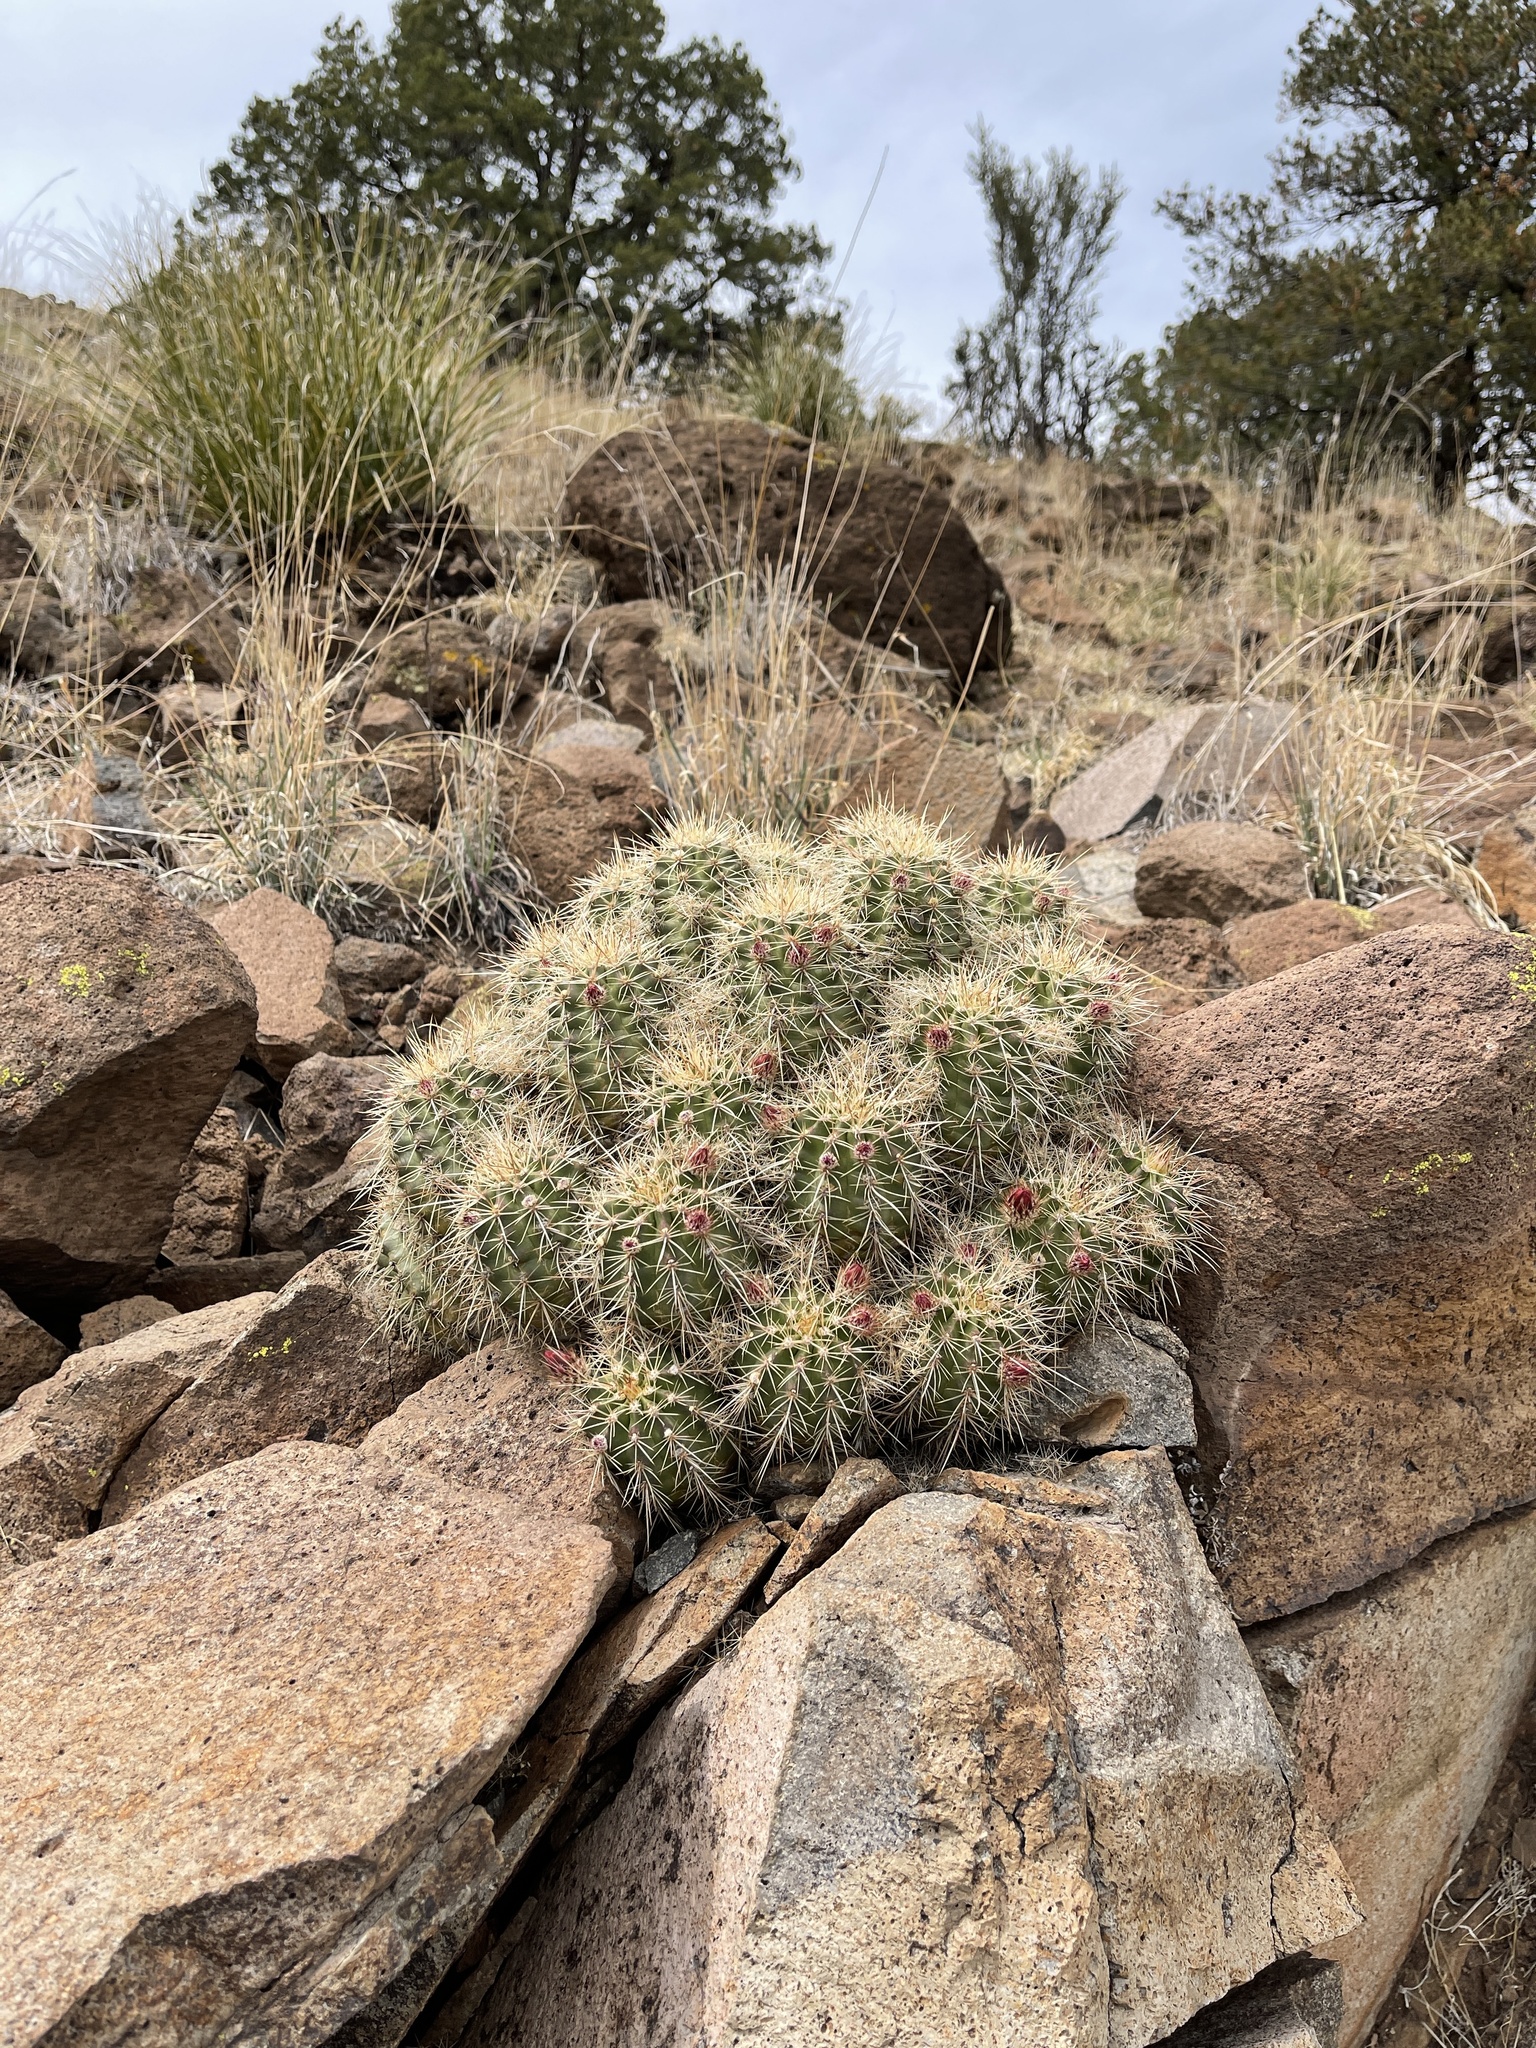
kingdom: Plantae
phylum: Tracheophyta
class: Magnoliopsida
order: Caryophyllales
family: Cactaceae
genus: Echinocereus
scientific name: Echinocereus coccineus
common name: Scarlet hedgehog cactus
